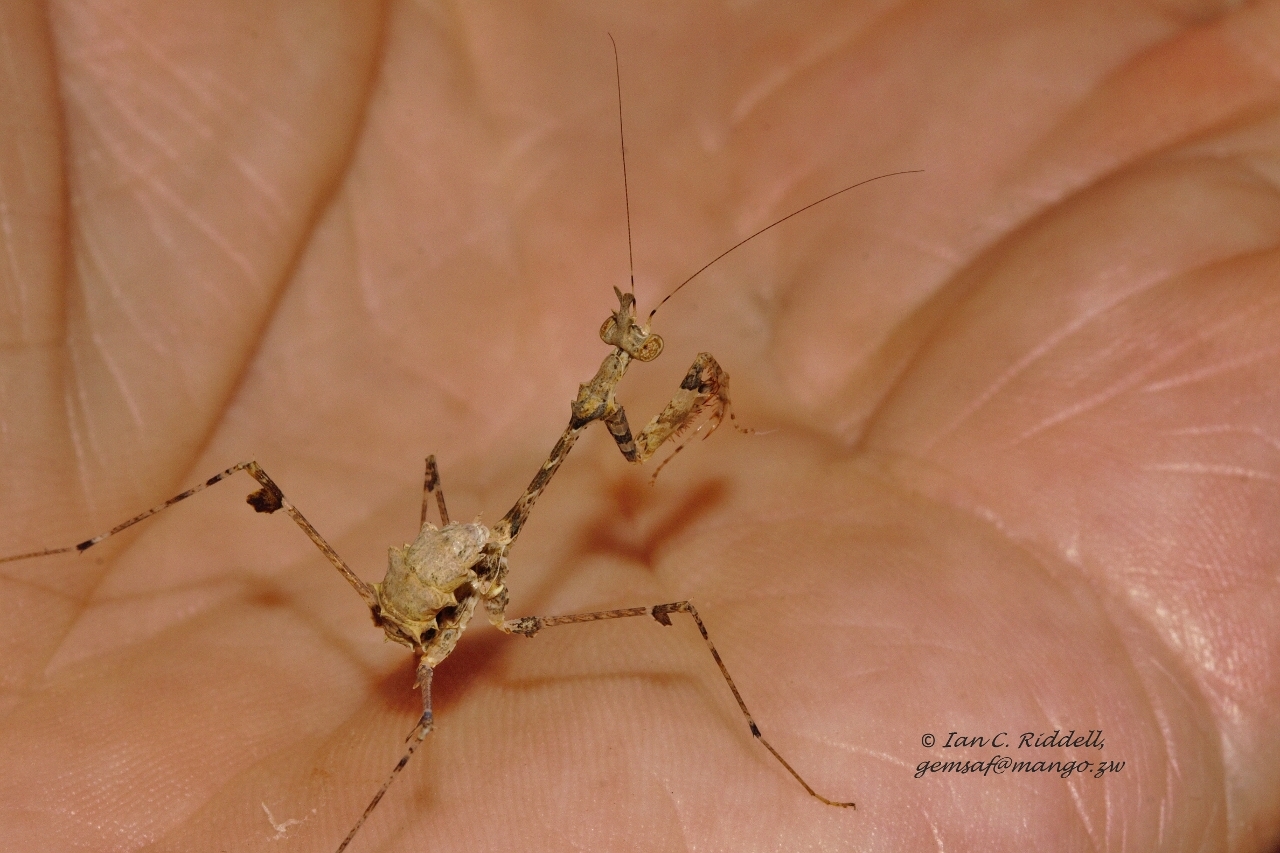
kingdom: Animalia
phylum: Arthropoda
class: Insecta
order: Mantodea
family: Hymenopodidae
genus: Sibylla
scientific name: Sibylla pretiosa
